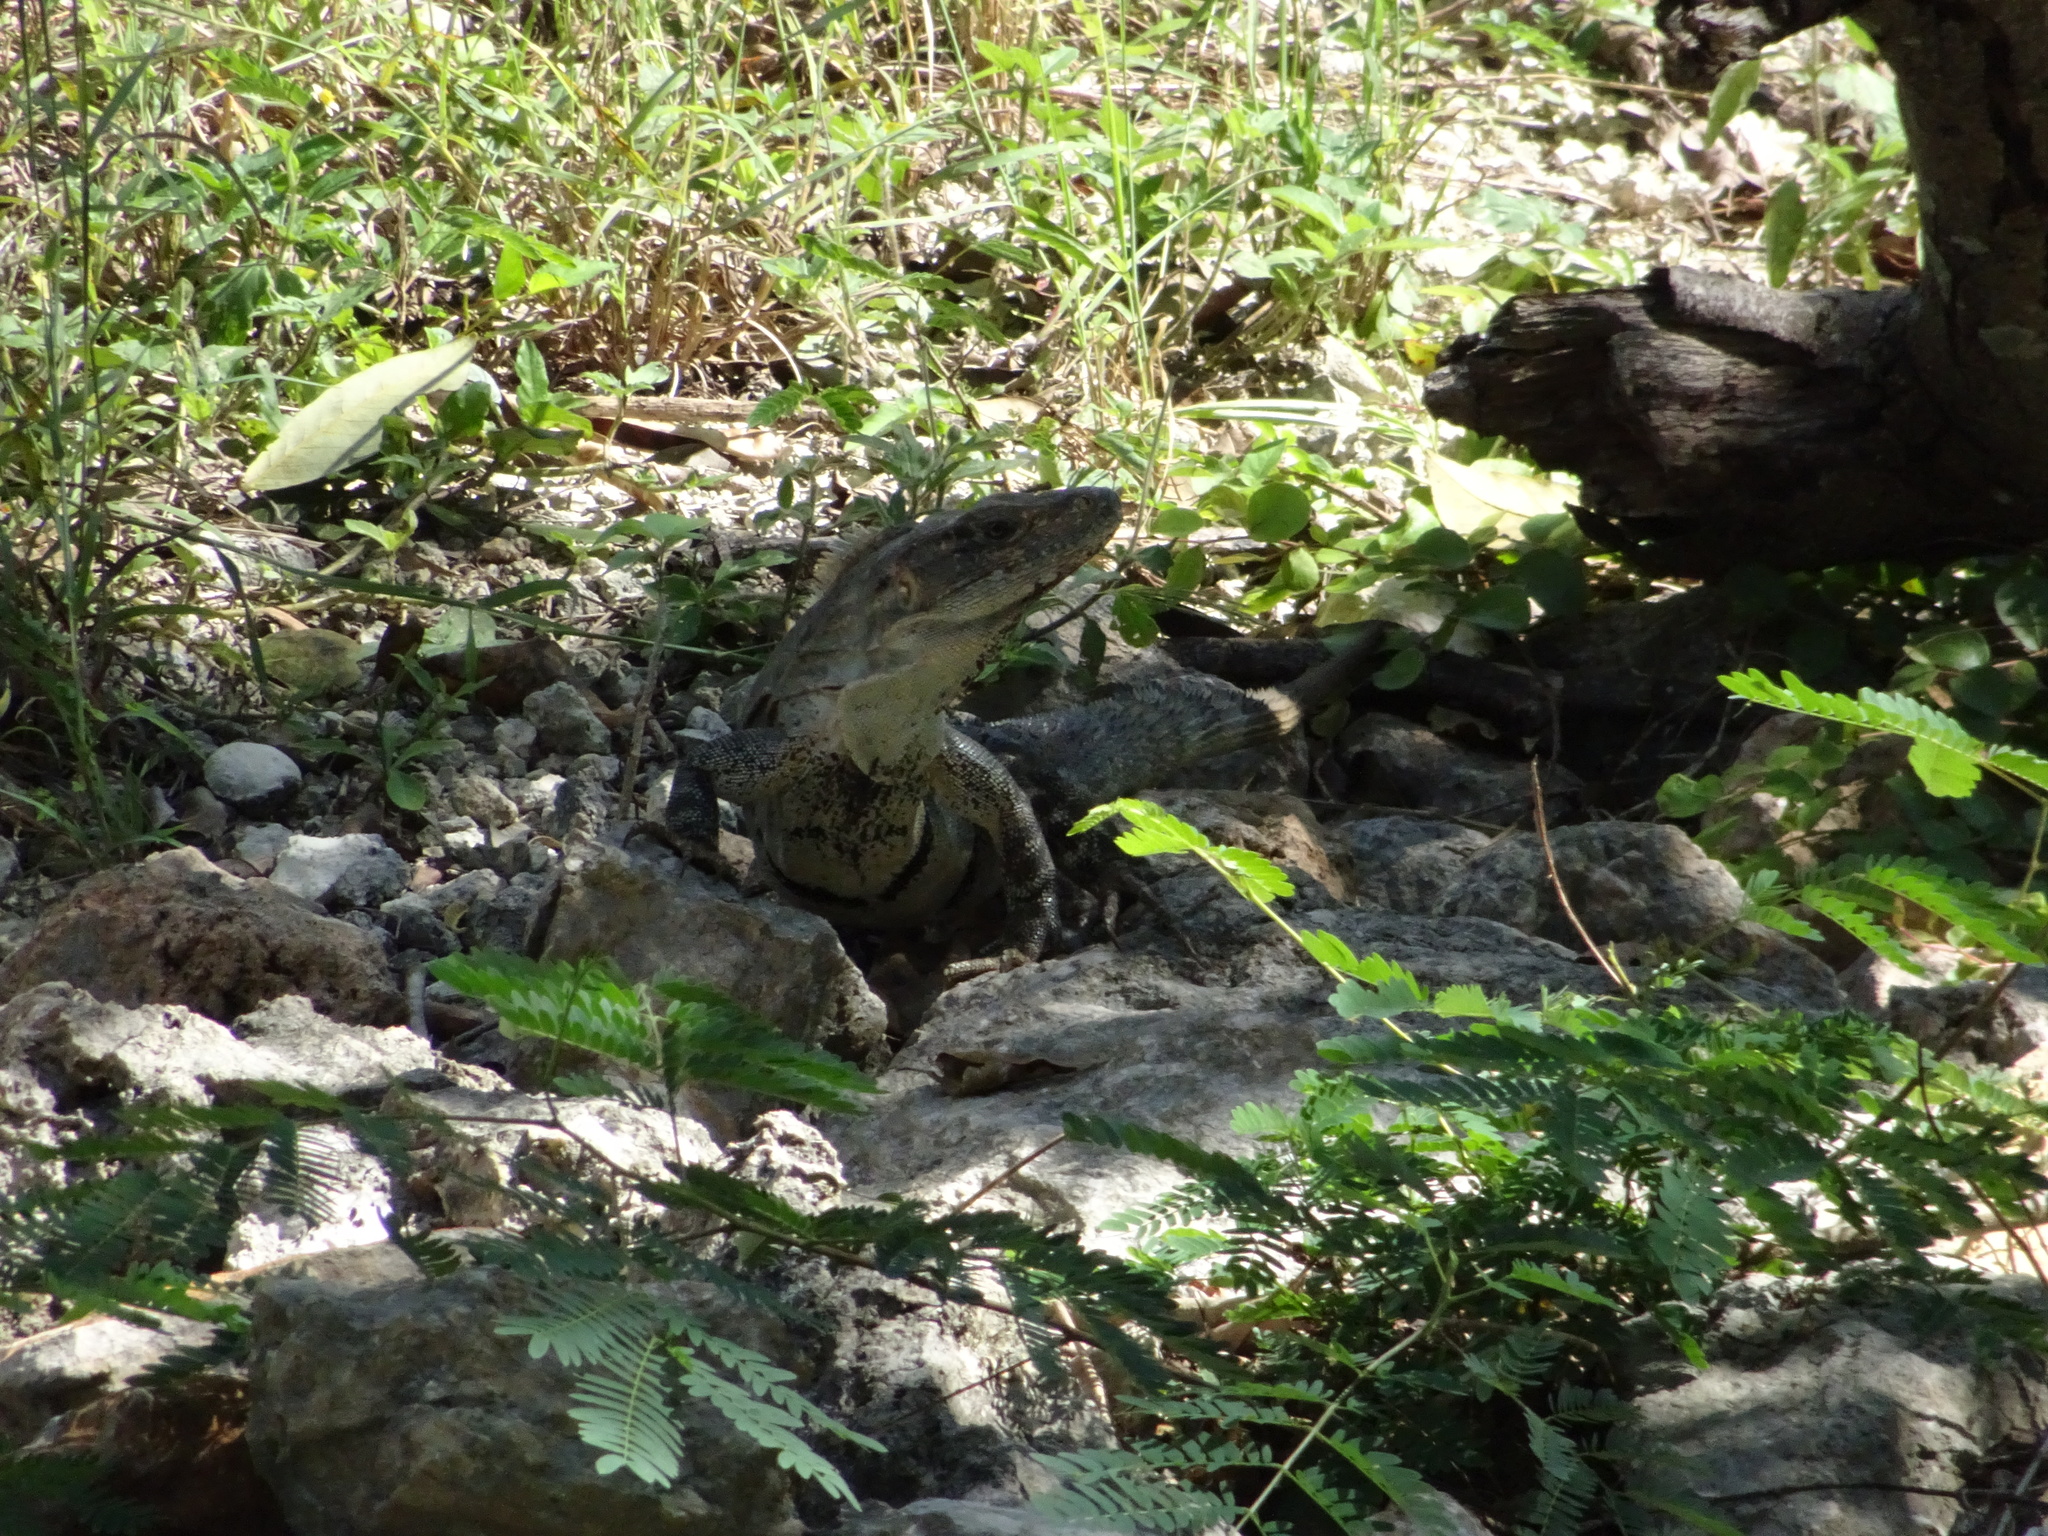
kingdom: Animalia
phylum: Chordata
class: Squamata
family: Iguanidae
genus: Ctenosaura
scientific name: Ctenosaura similis
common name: Black spiny-tailed iguana
